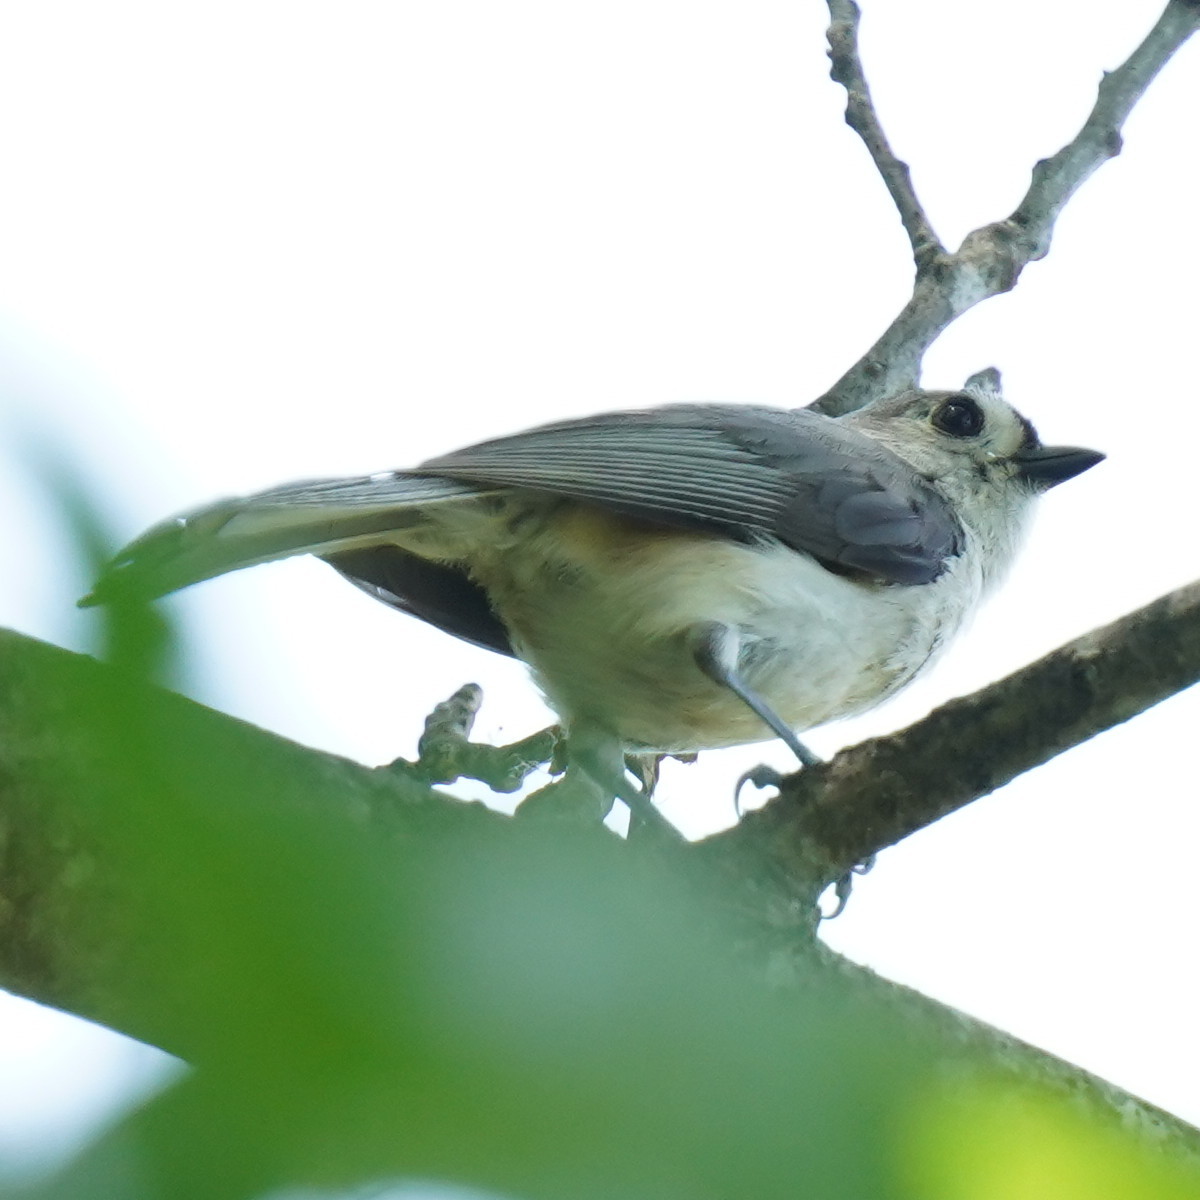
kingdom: Animalia
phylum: Chordata
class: Aves
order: Passeriformes
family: Paridae
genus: Baeolophus
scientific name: Baeolophus bicolor
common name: Tufted titmouse
